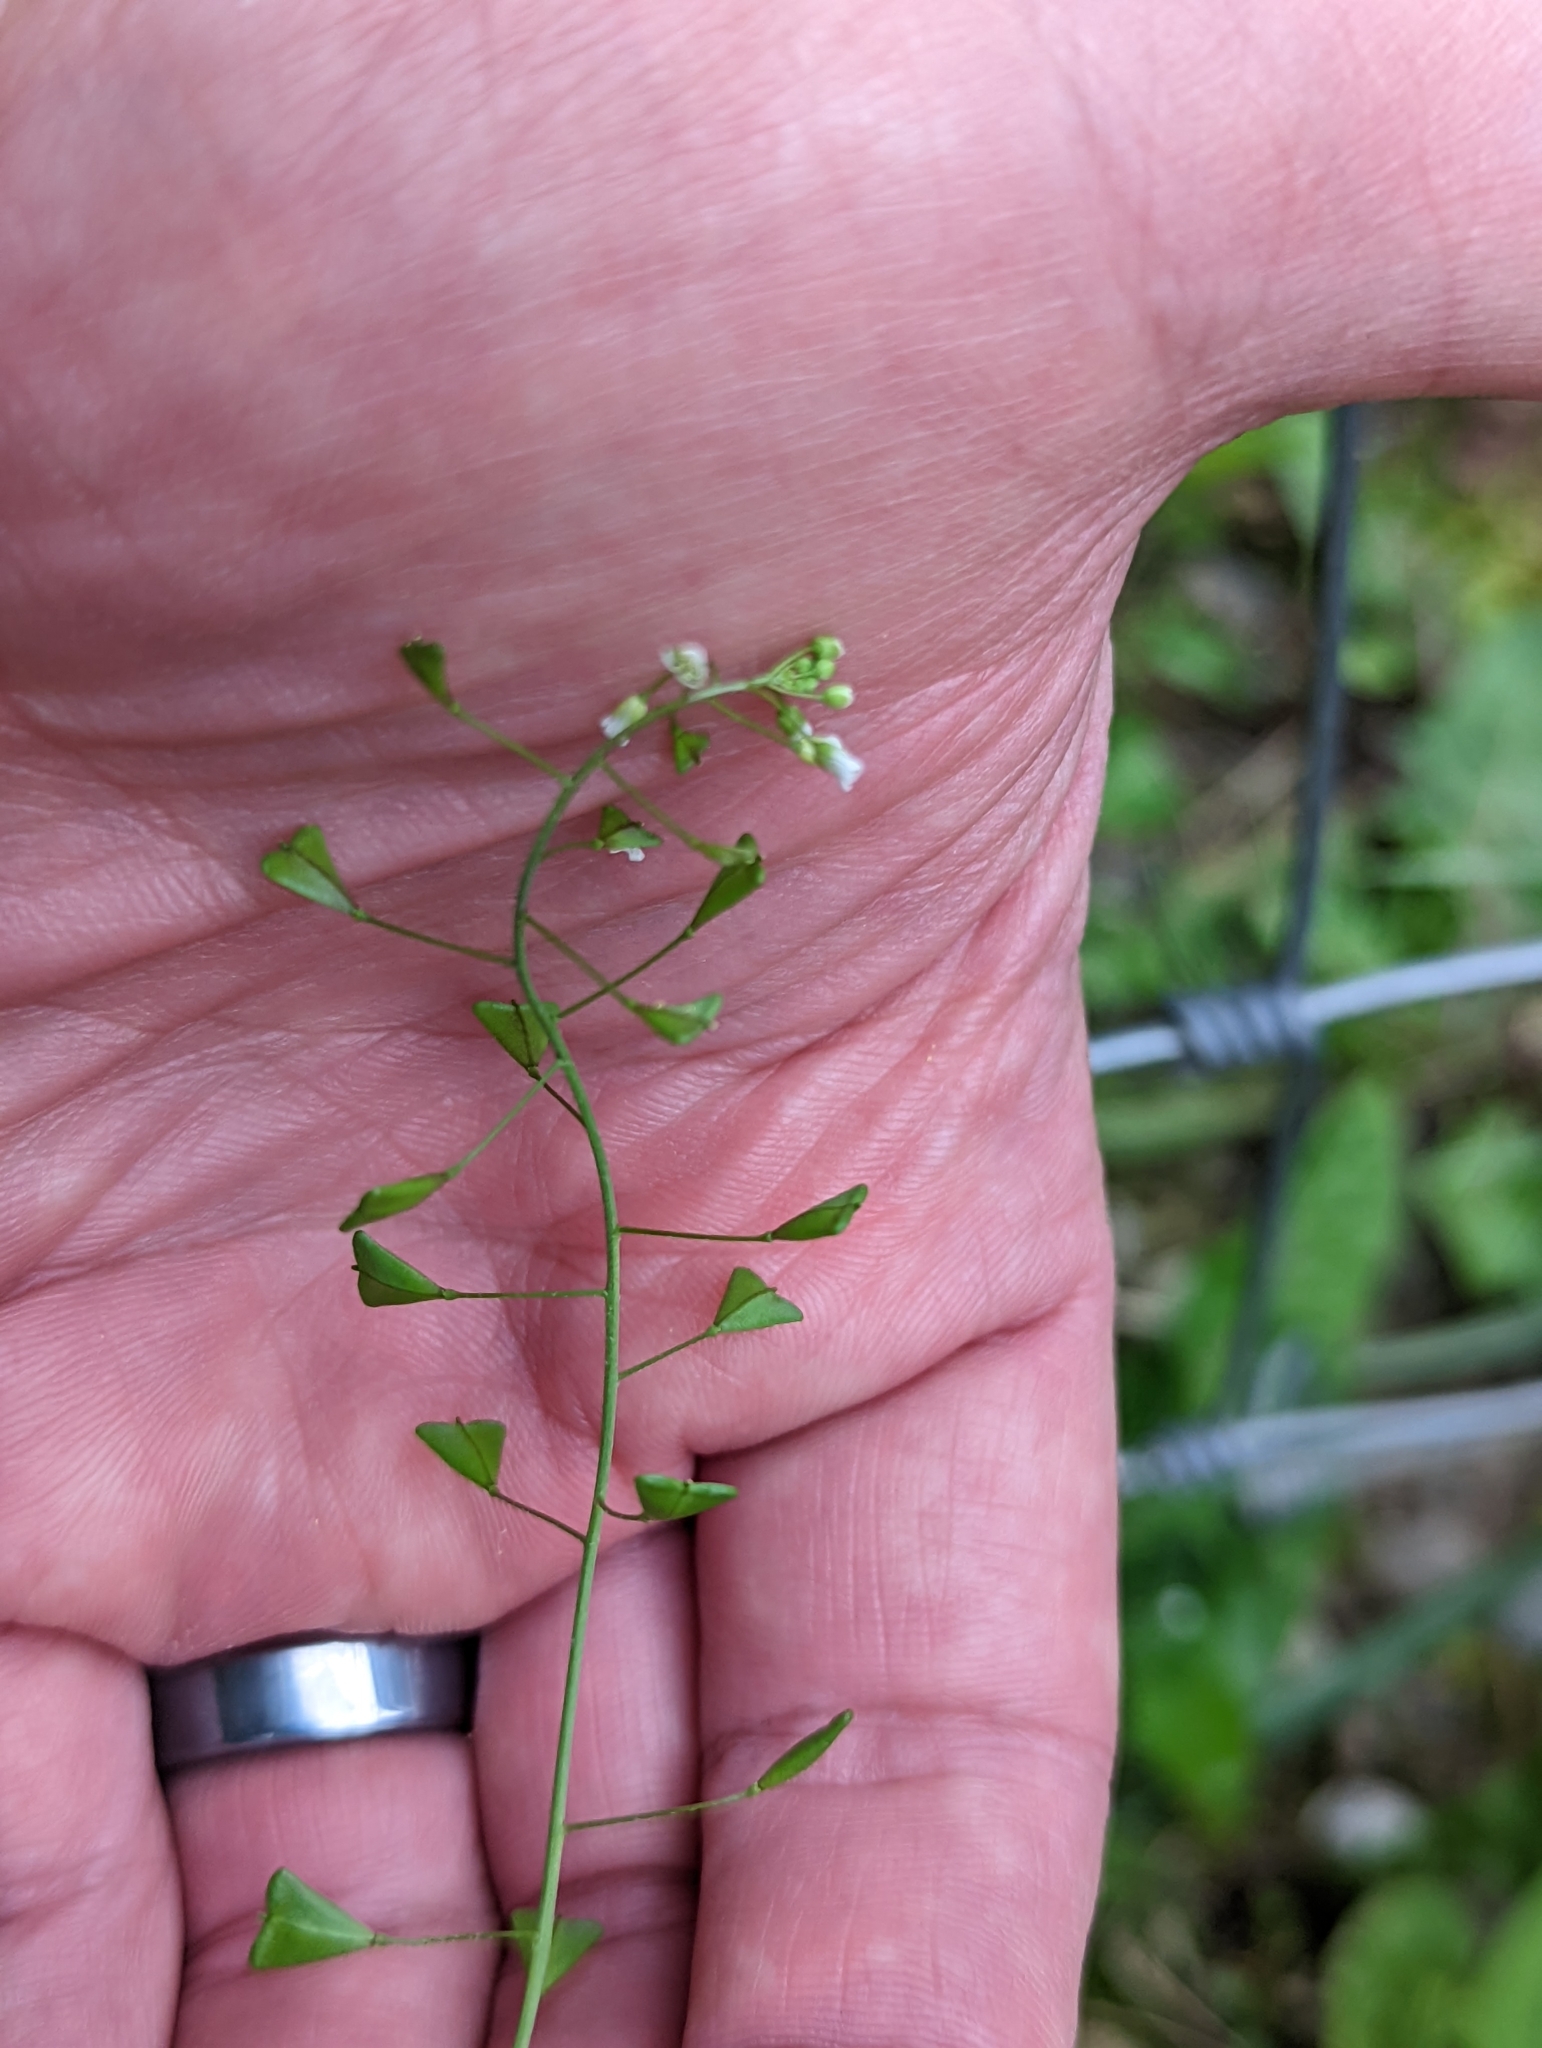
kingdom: Plantae
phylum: Tracheophyta
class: Magnoliopsida
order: Brassicales
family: Brassicaceae
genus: Capsella
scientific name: Capsella bursa-pastoris
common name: Shepherd's purse
